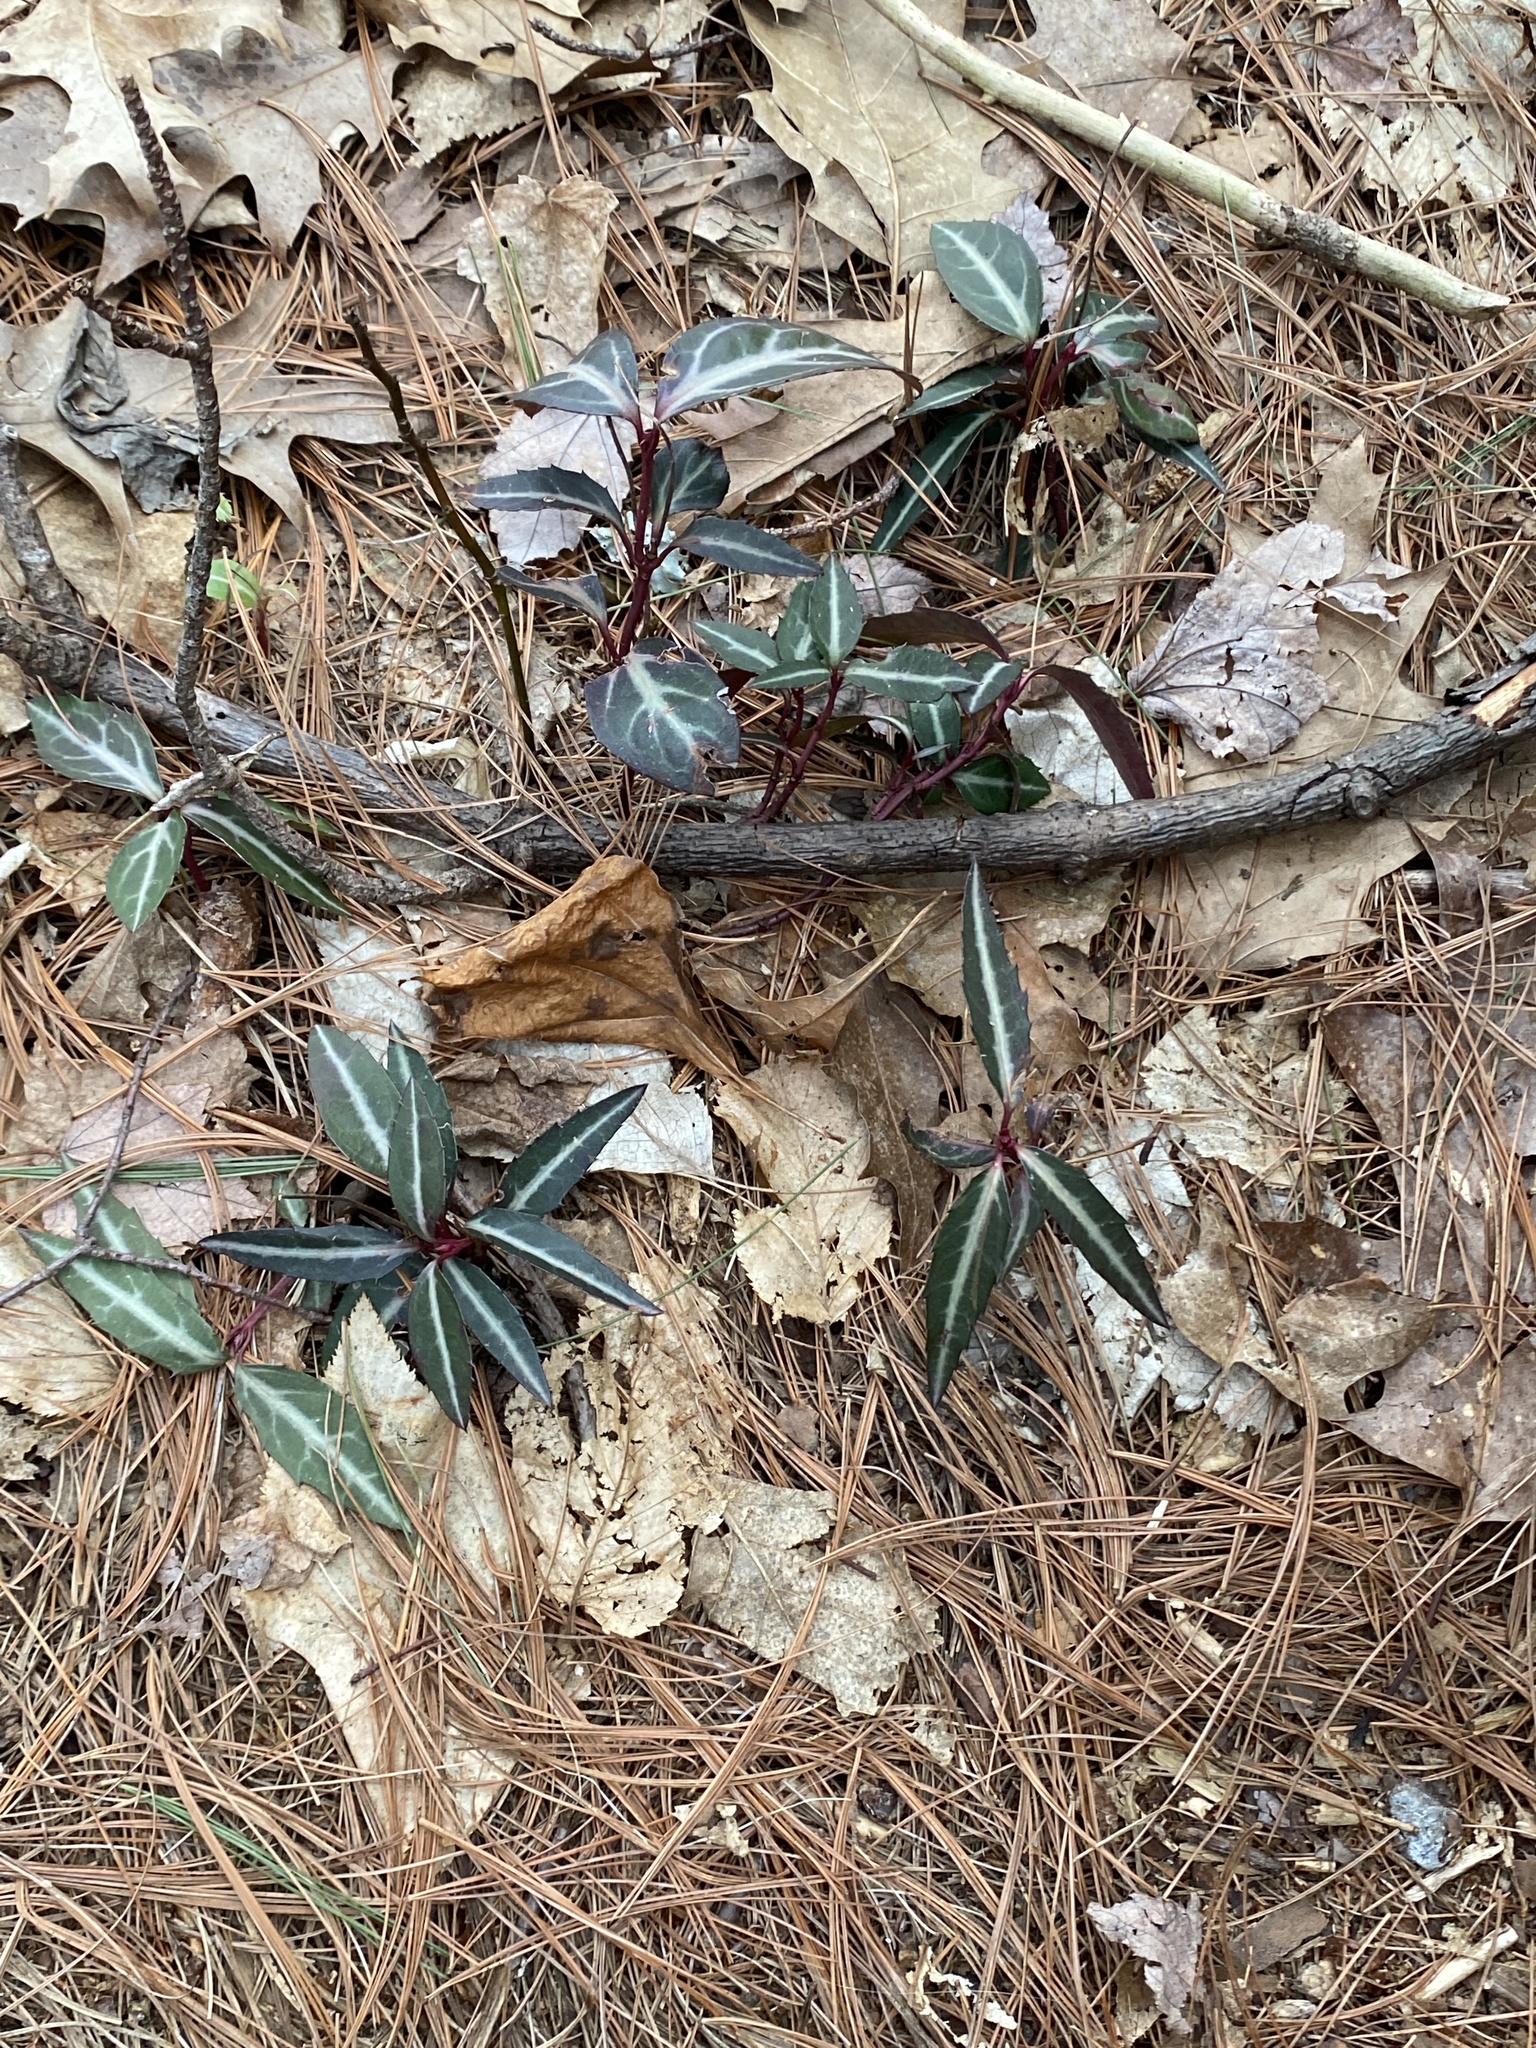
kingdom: Plantae
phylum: Tracheophyta
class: Magnoliopsida
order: Ericales
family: Ericaceae
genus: Chimaphila
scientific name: Chimaphila maculata
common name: Spotted pipsissewa
